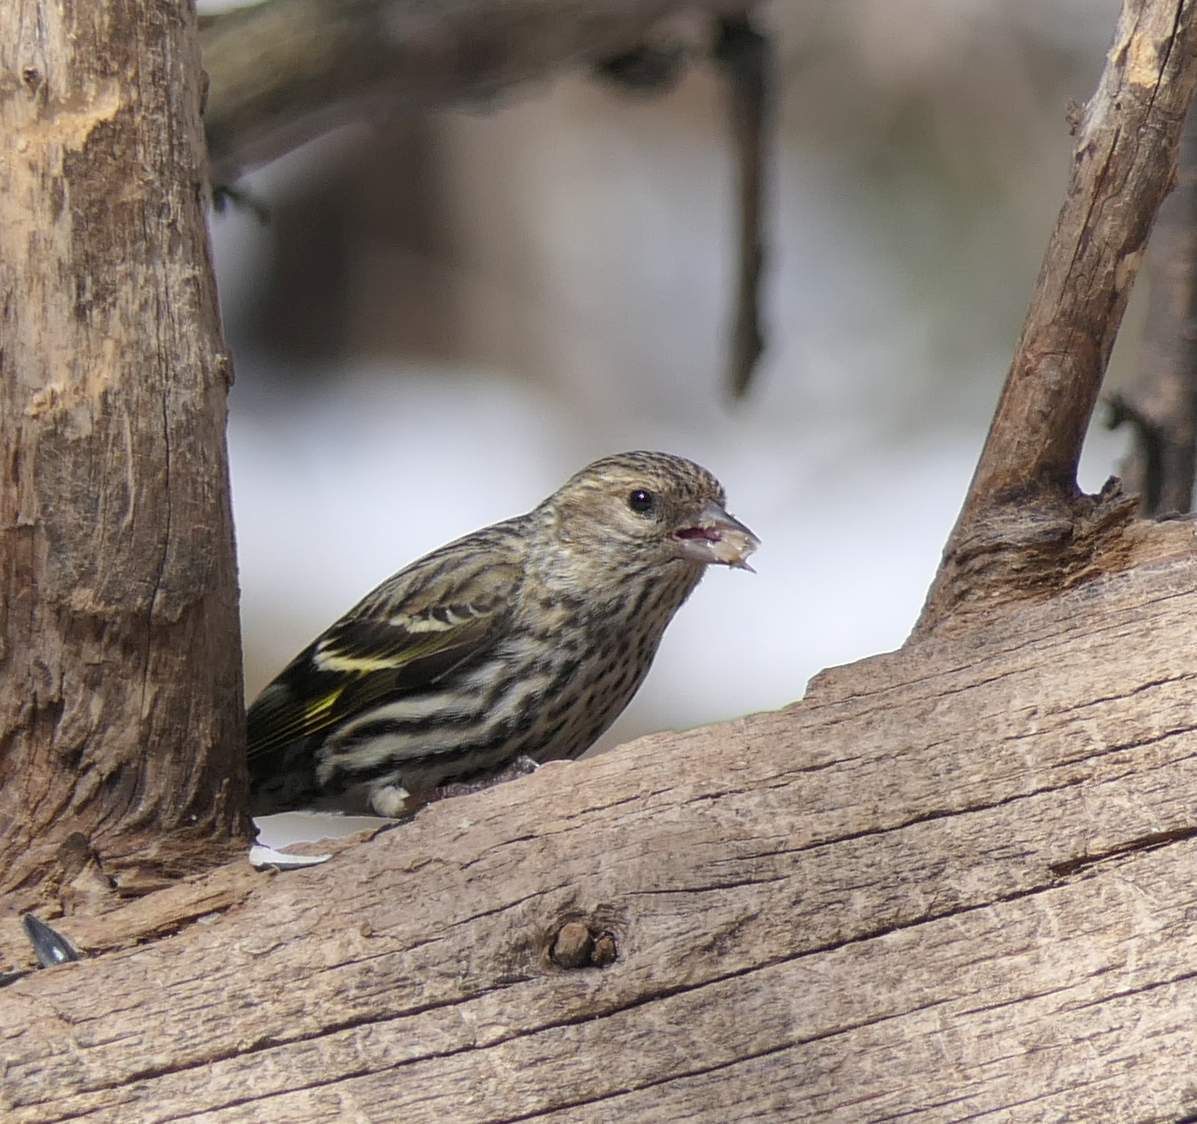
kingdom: Animalia
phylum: Chordata
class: Aves
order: Passeriformes
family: Fringillidae
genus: Spinus
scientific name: Spinus pinus
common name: Pine siskin
